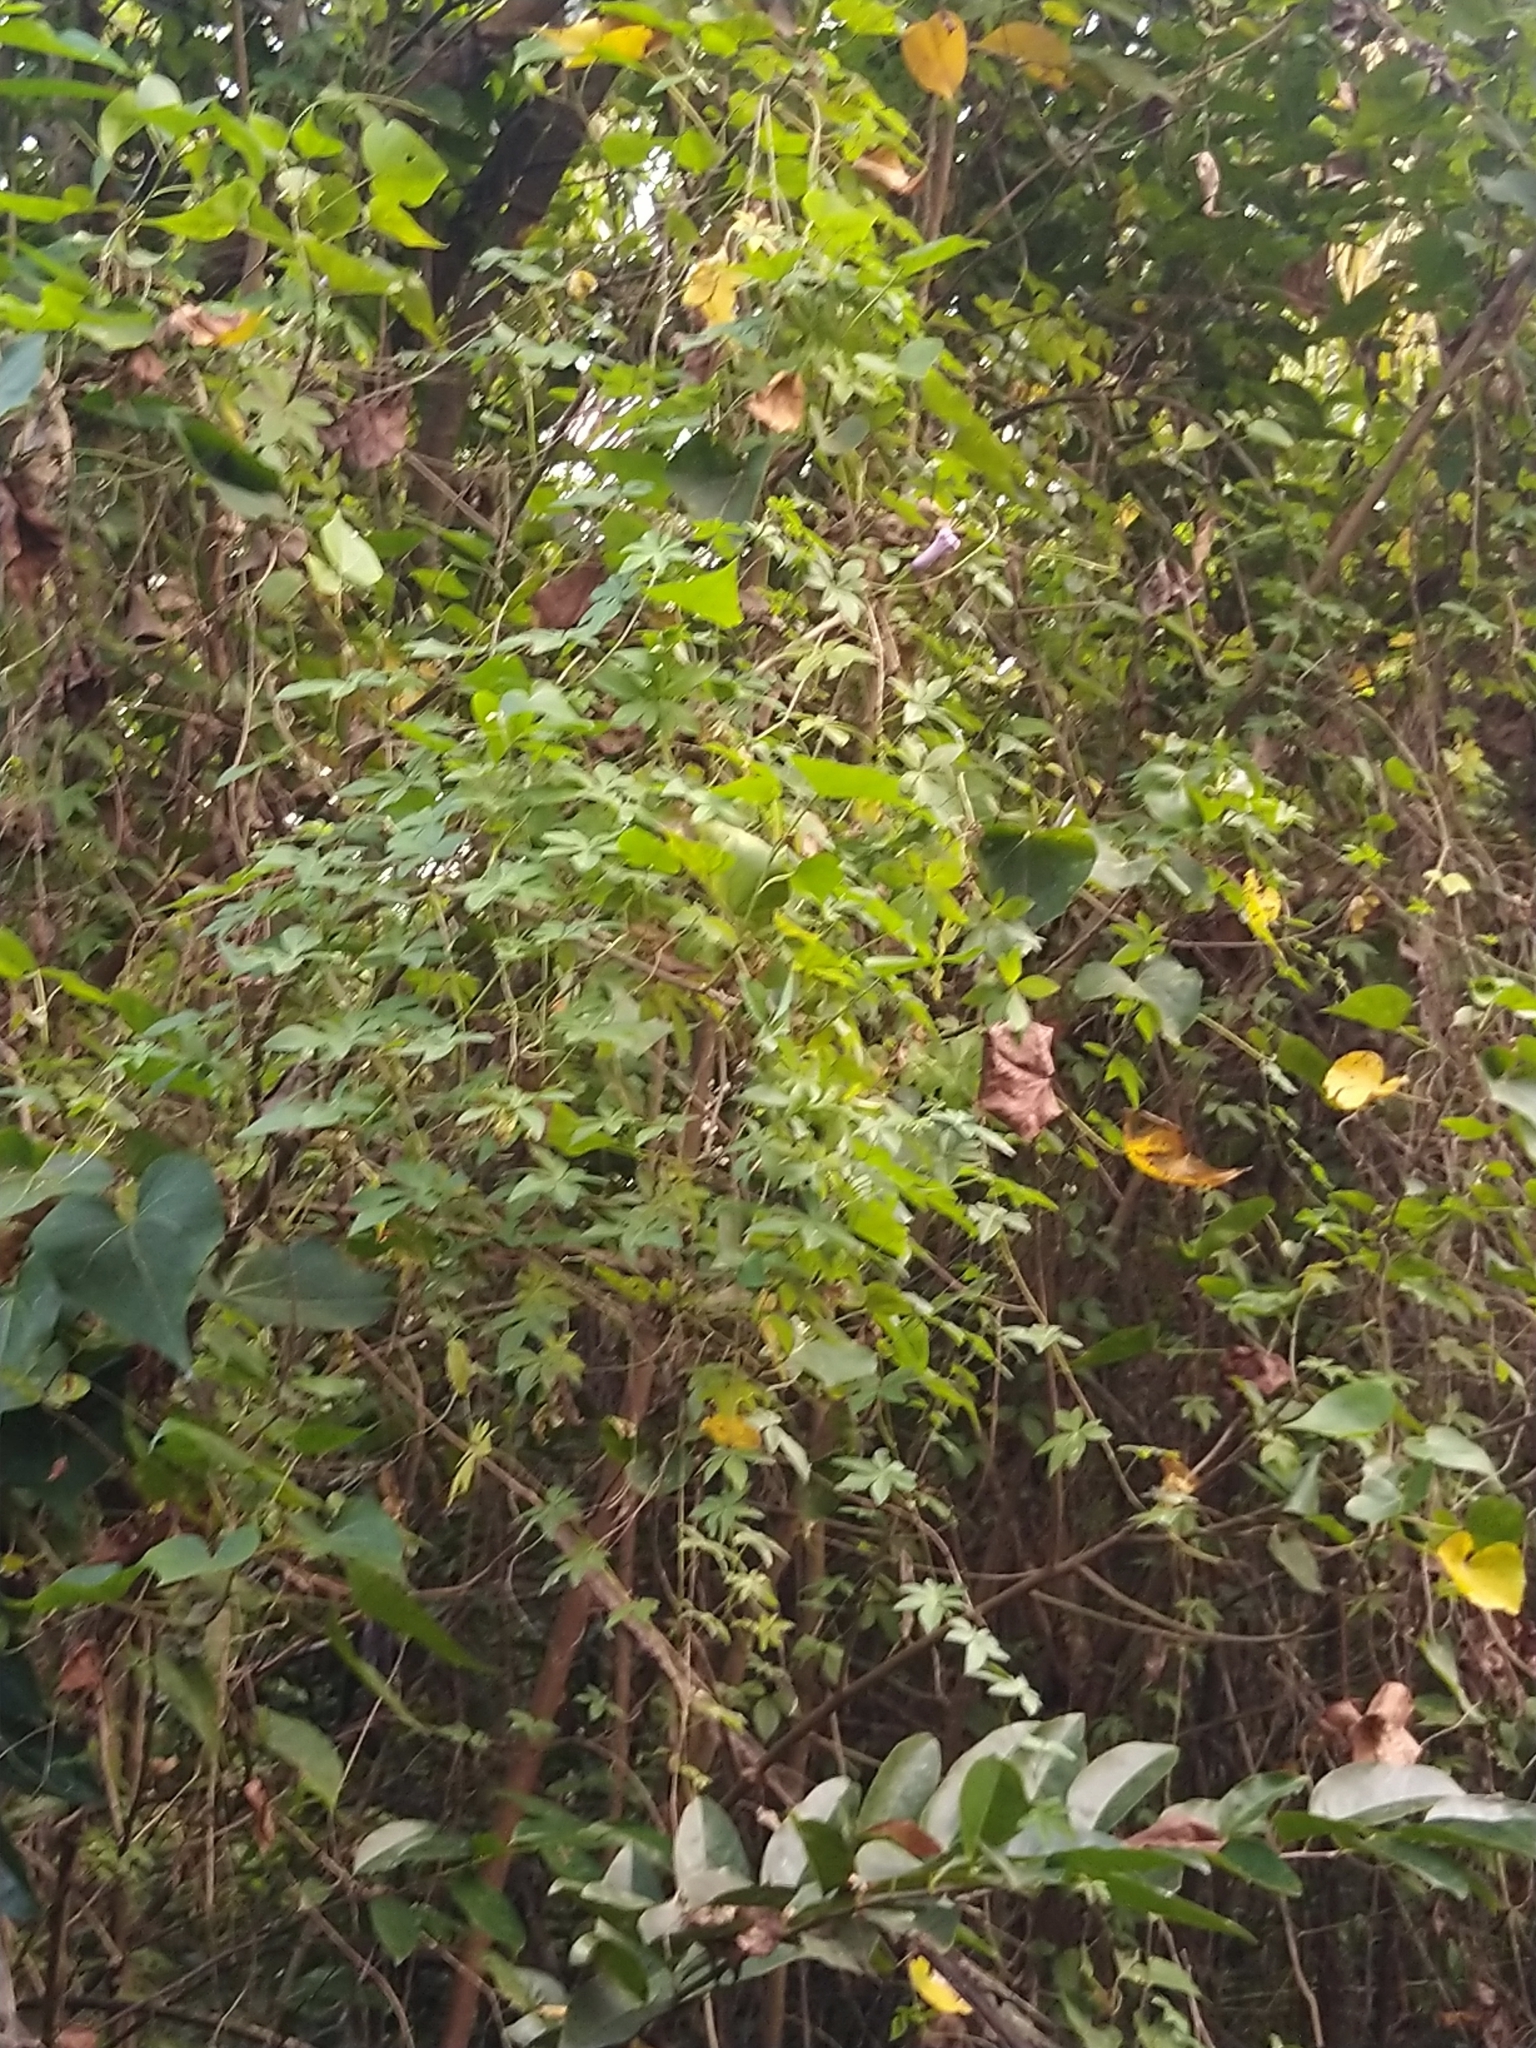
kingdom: Plantae
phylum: Tracheophyta
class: Magnoliopsida
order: Solanales
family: Convolvulaceae
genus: Ipomoea
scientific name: Ipomoea cairica
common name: Mile a minute vine
